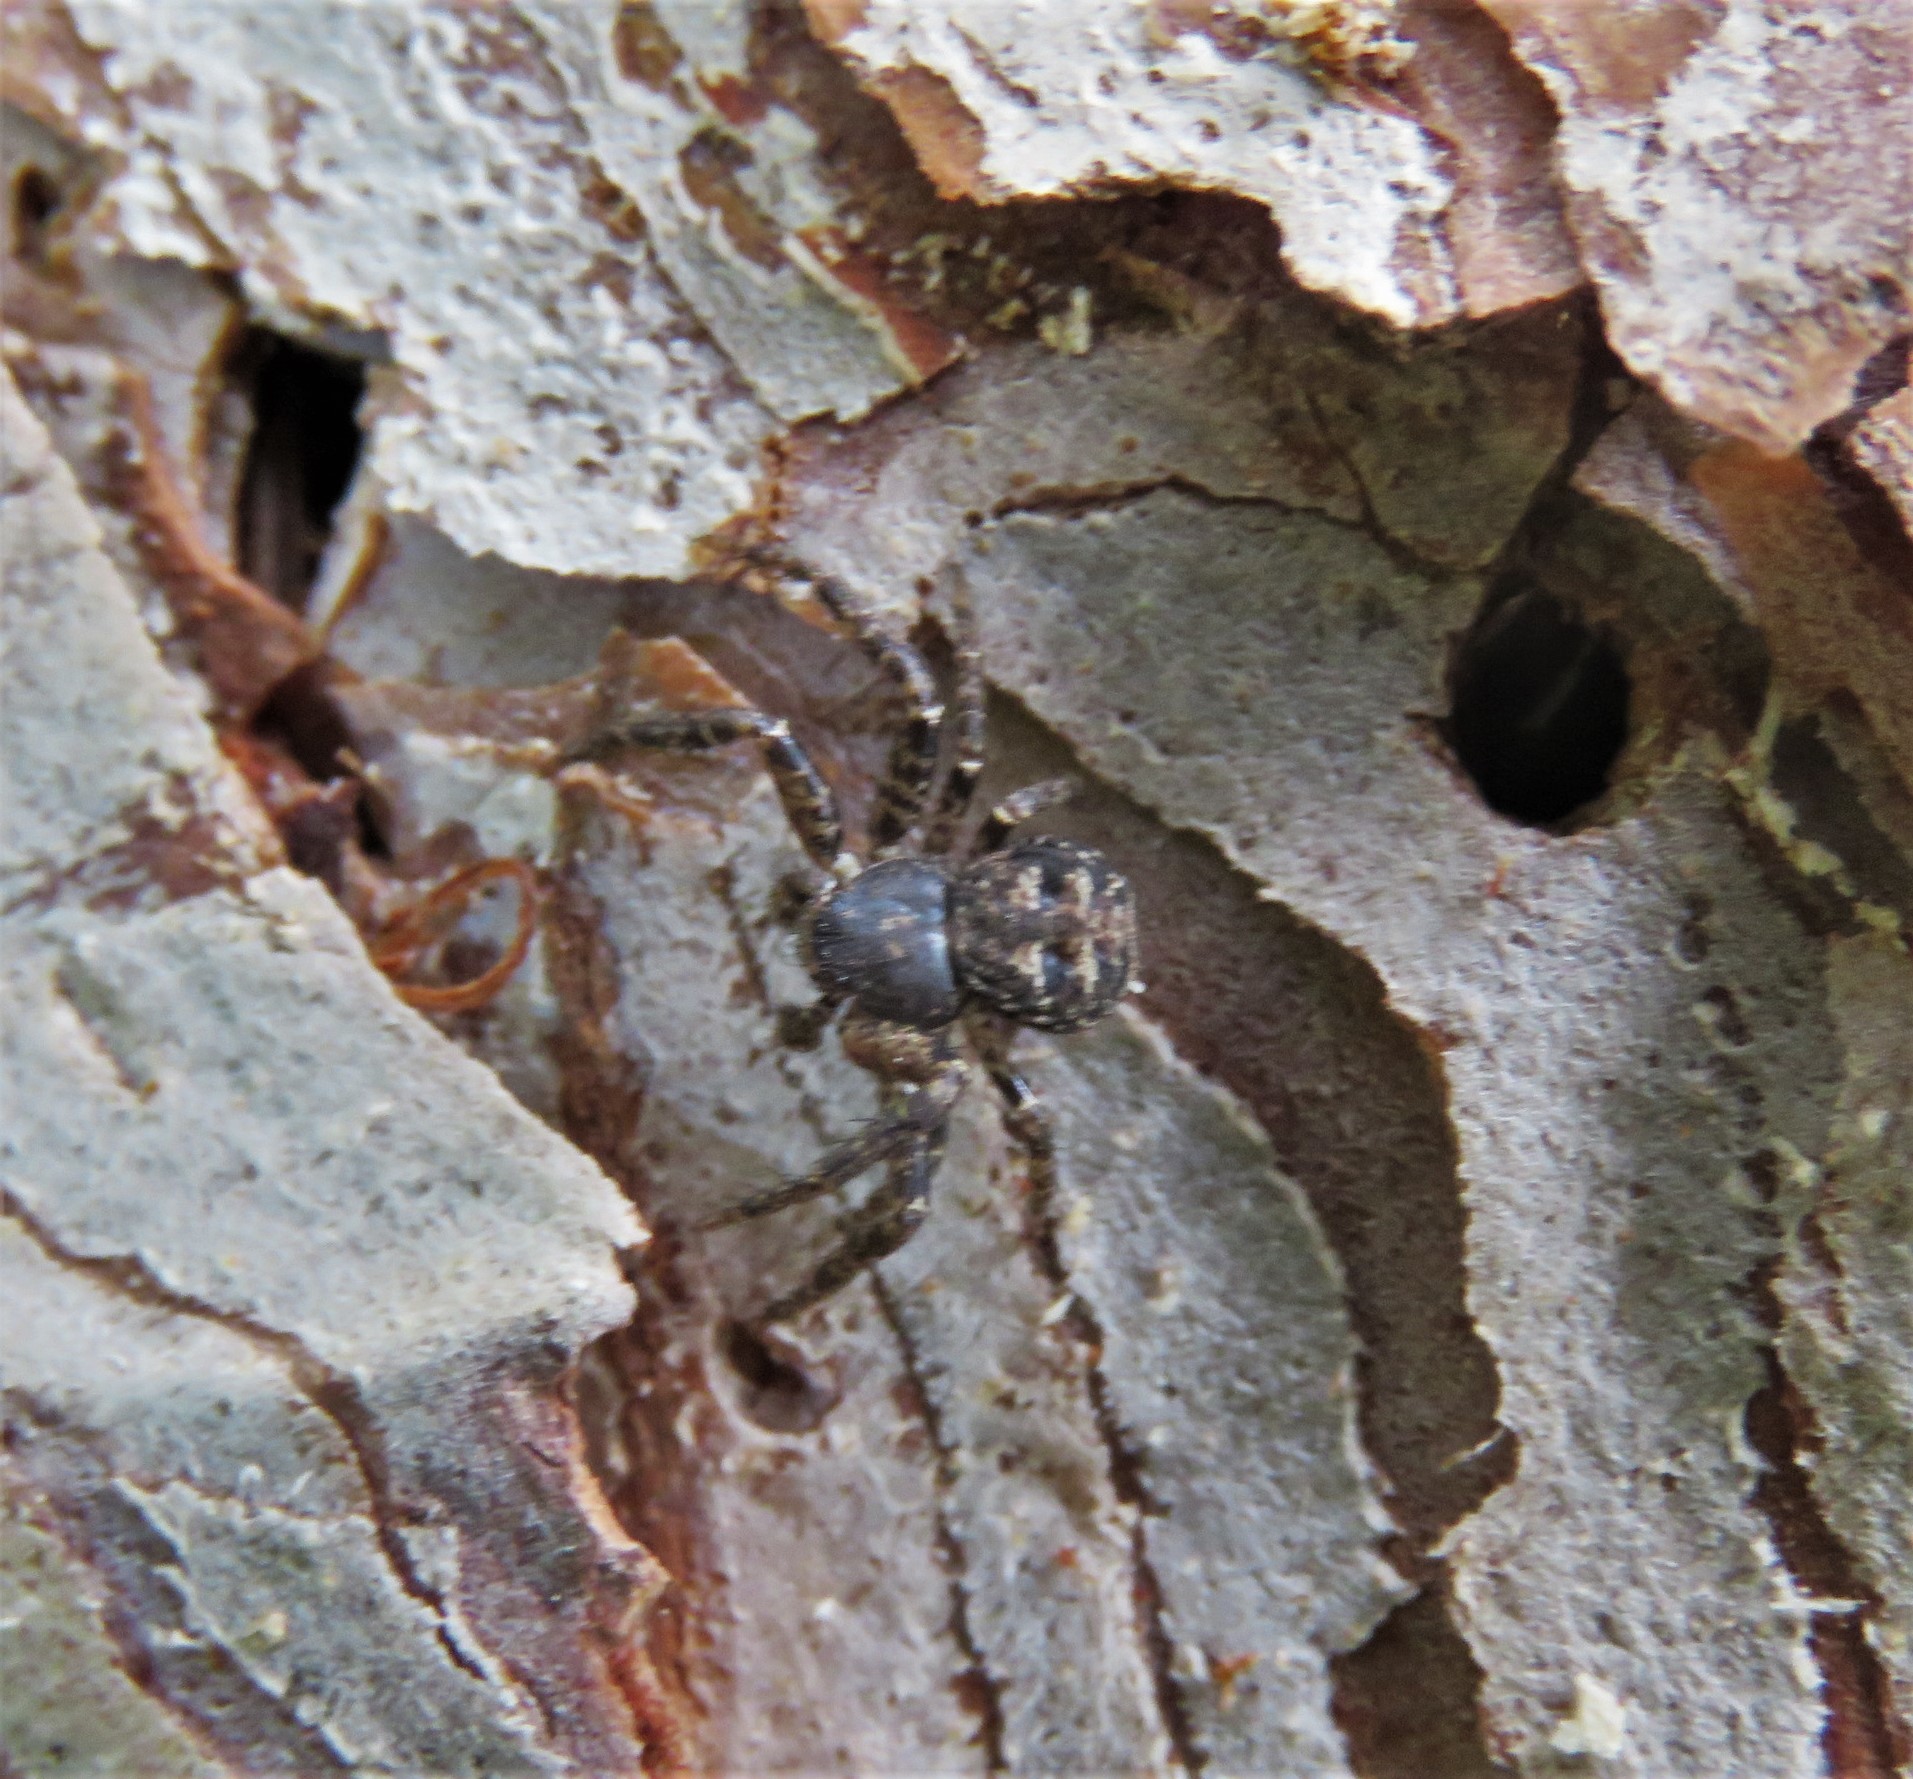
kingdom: Animalia
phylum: Arthropoda
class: Arachnida
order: Araneae
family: Thomisidae
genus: Bassaniana
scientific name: Bassaniana versicolor
